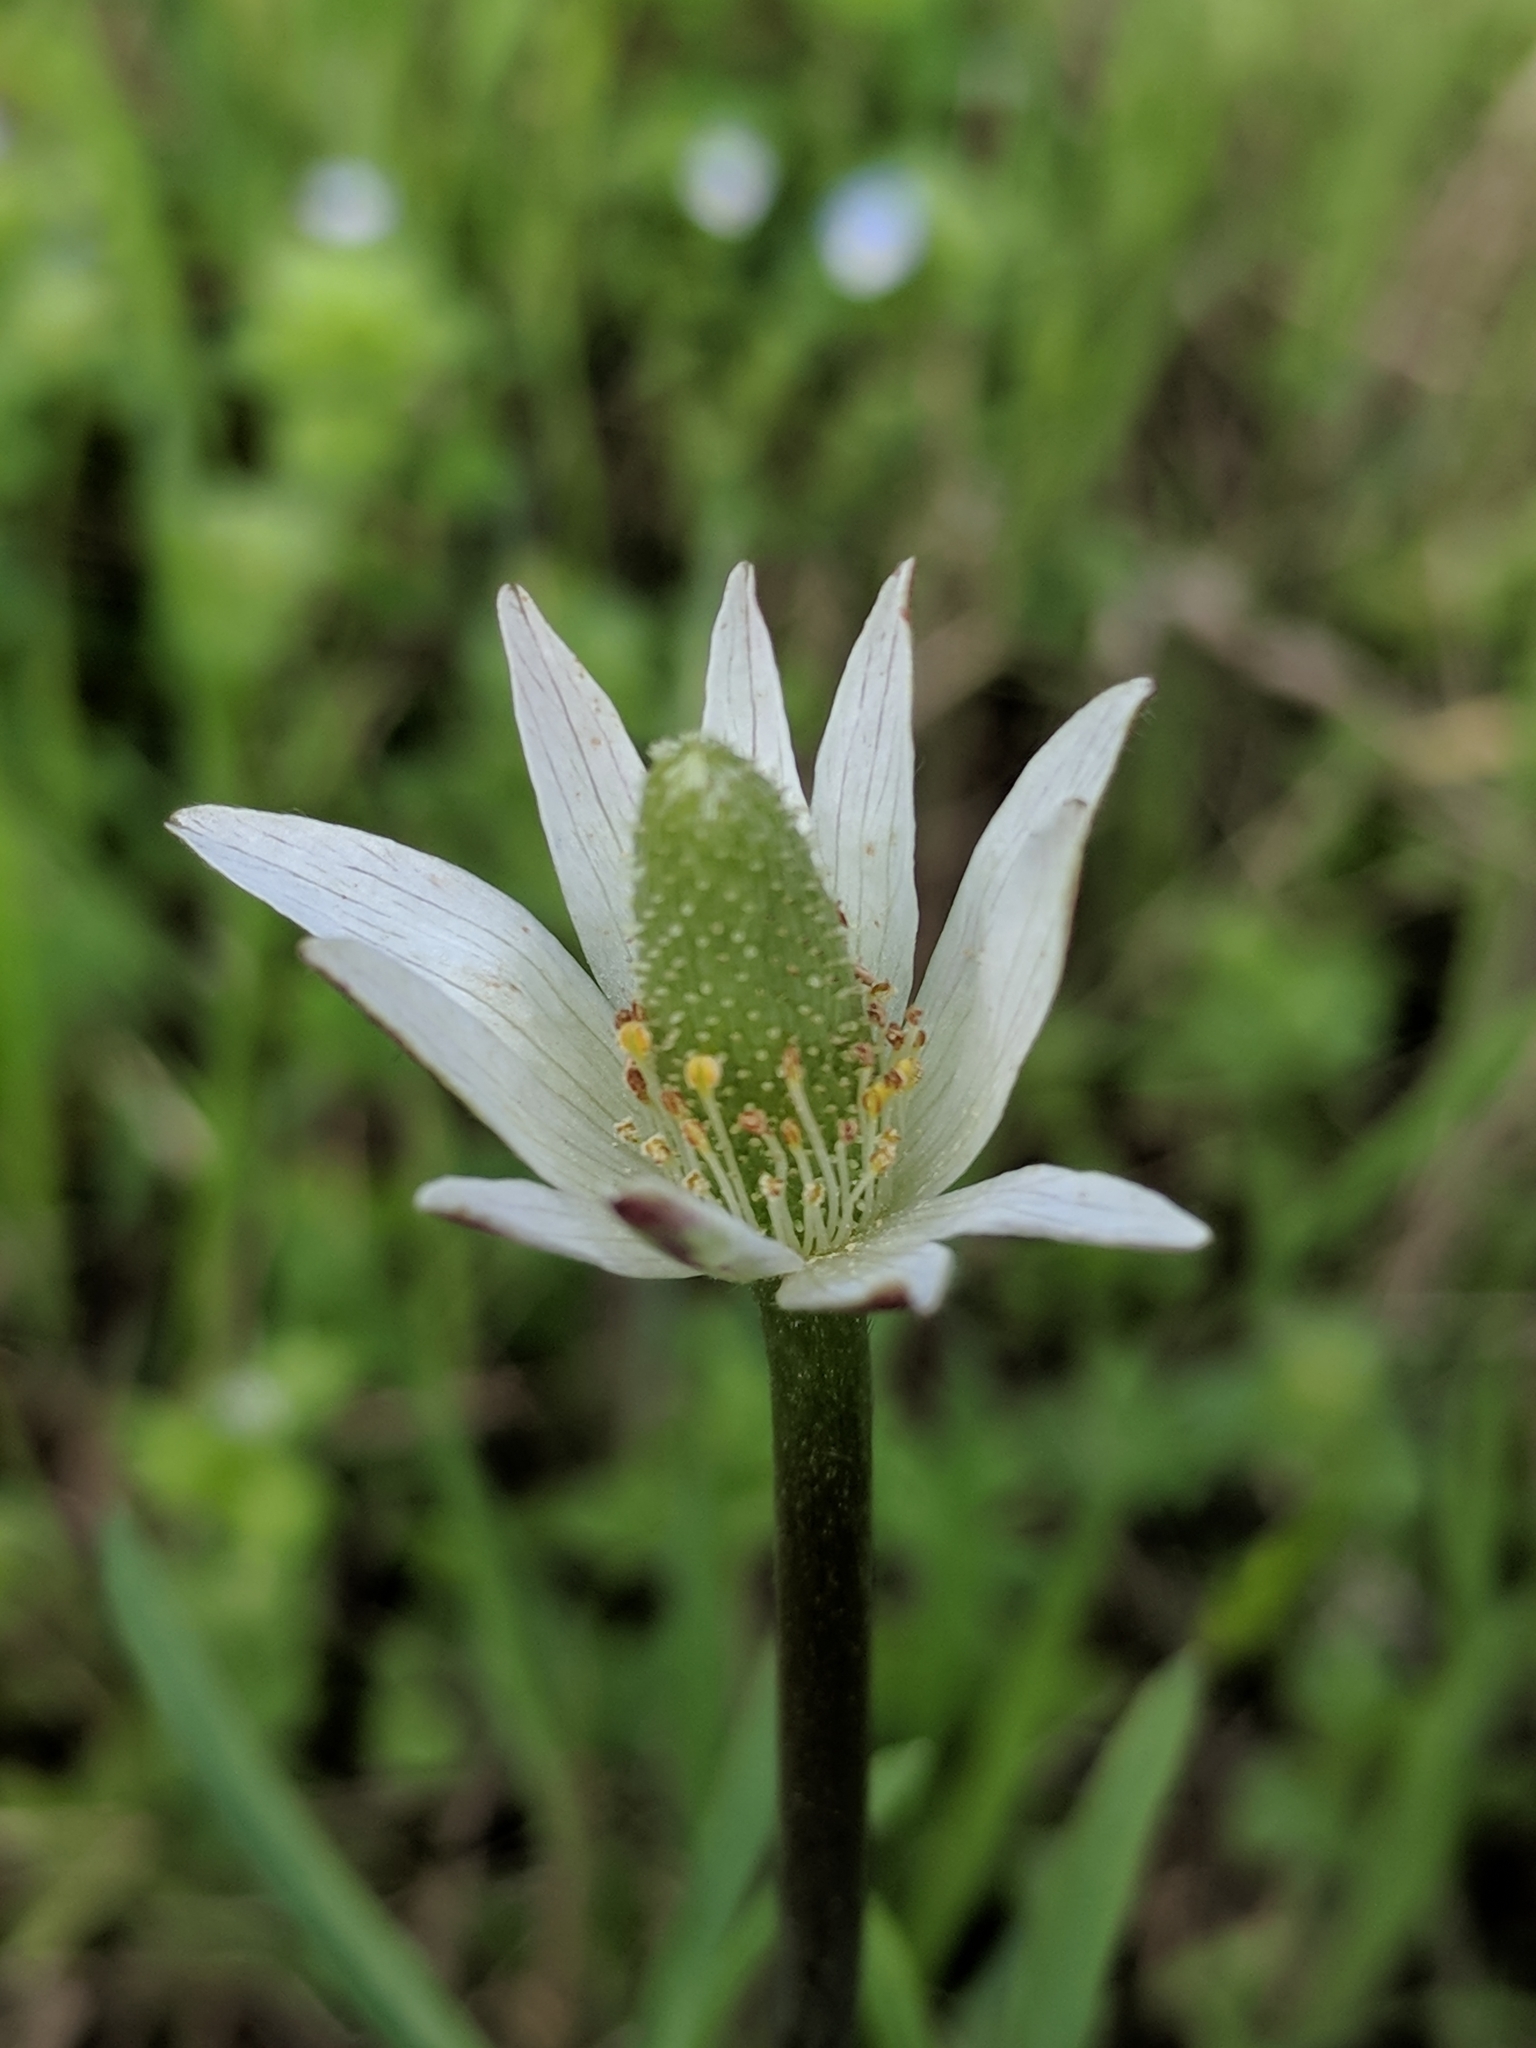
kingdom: Plantae
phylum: Tracheophyta
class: Magnoliopsida
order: Ranunculales
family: Ranunculaceae
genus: Anemone
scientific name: Anemone berlandieri
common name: Ten-petal anemone
